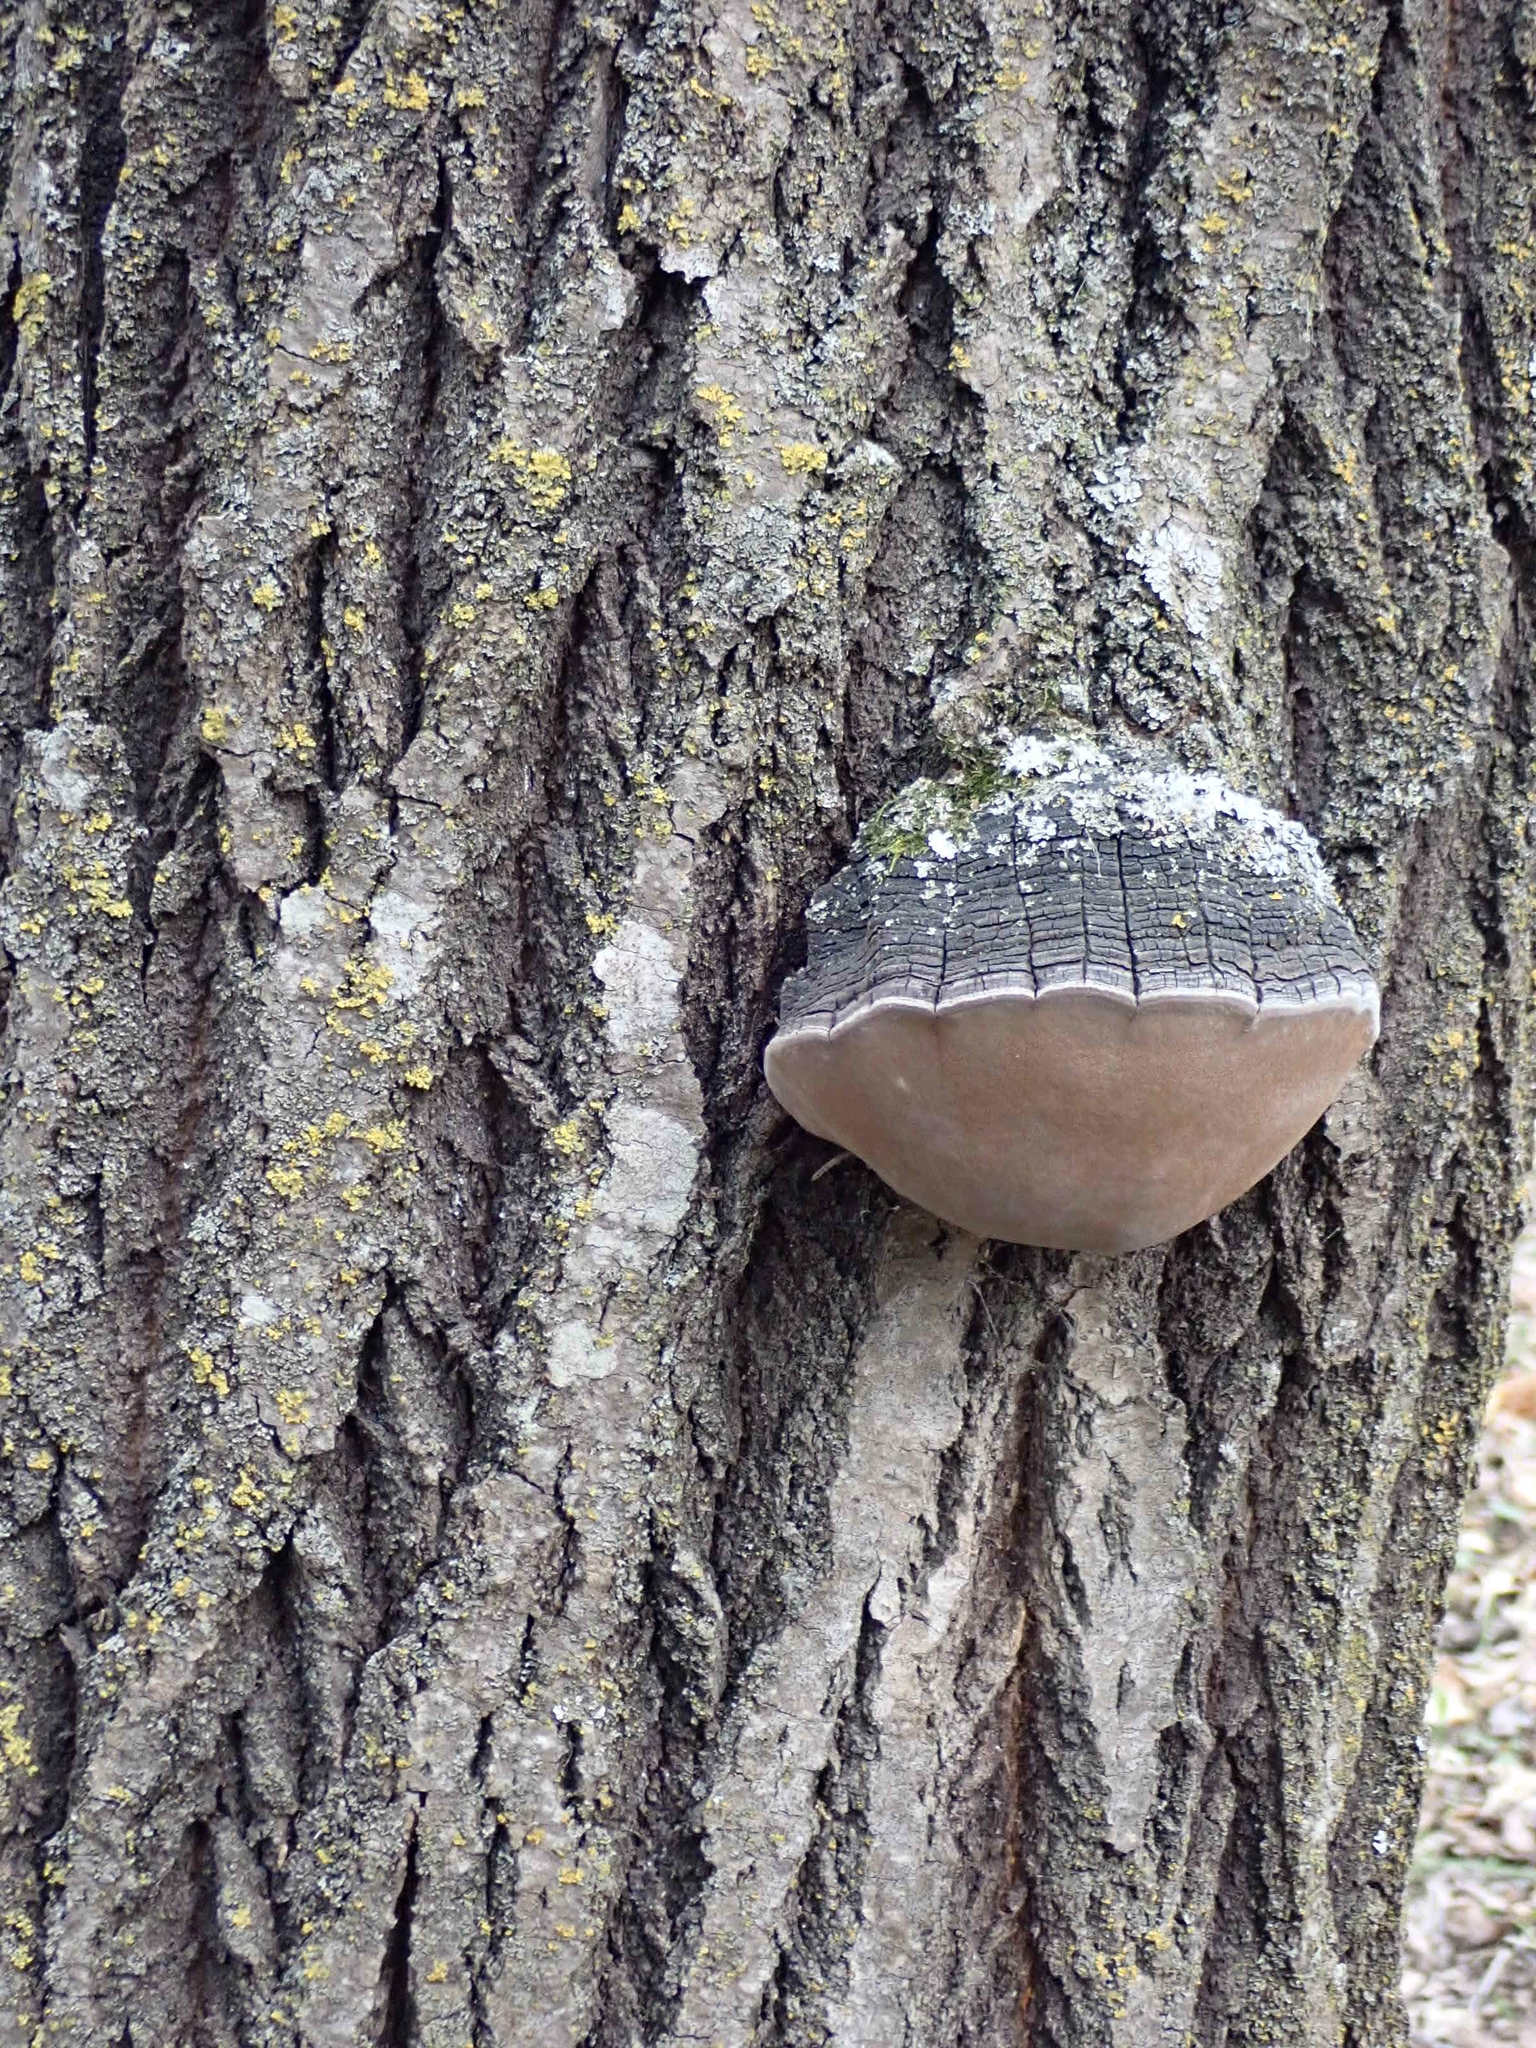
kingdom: Fungi
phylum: Basidiomycota
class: Agaricomycetes
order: Hymenochaetales
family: Hymenochaetaceae
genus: Phellinus
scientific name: Phellinus tremulae
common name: Aspen bracket
